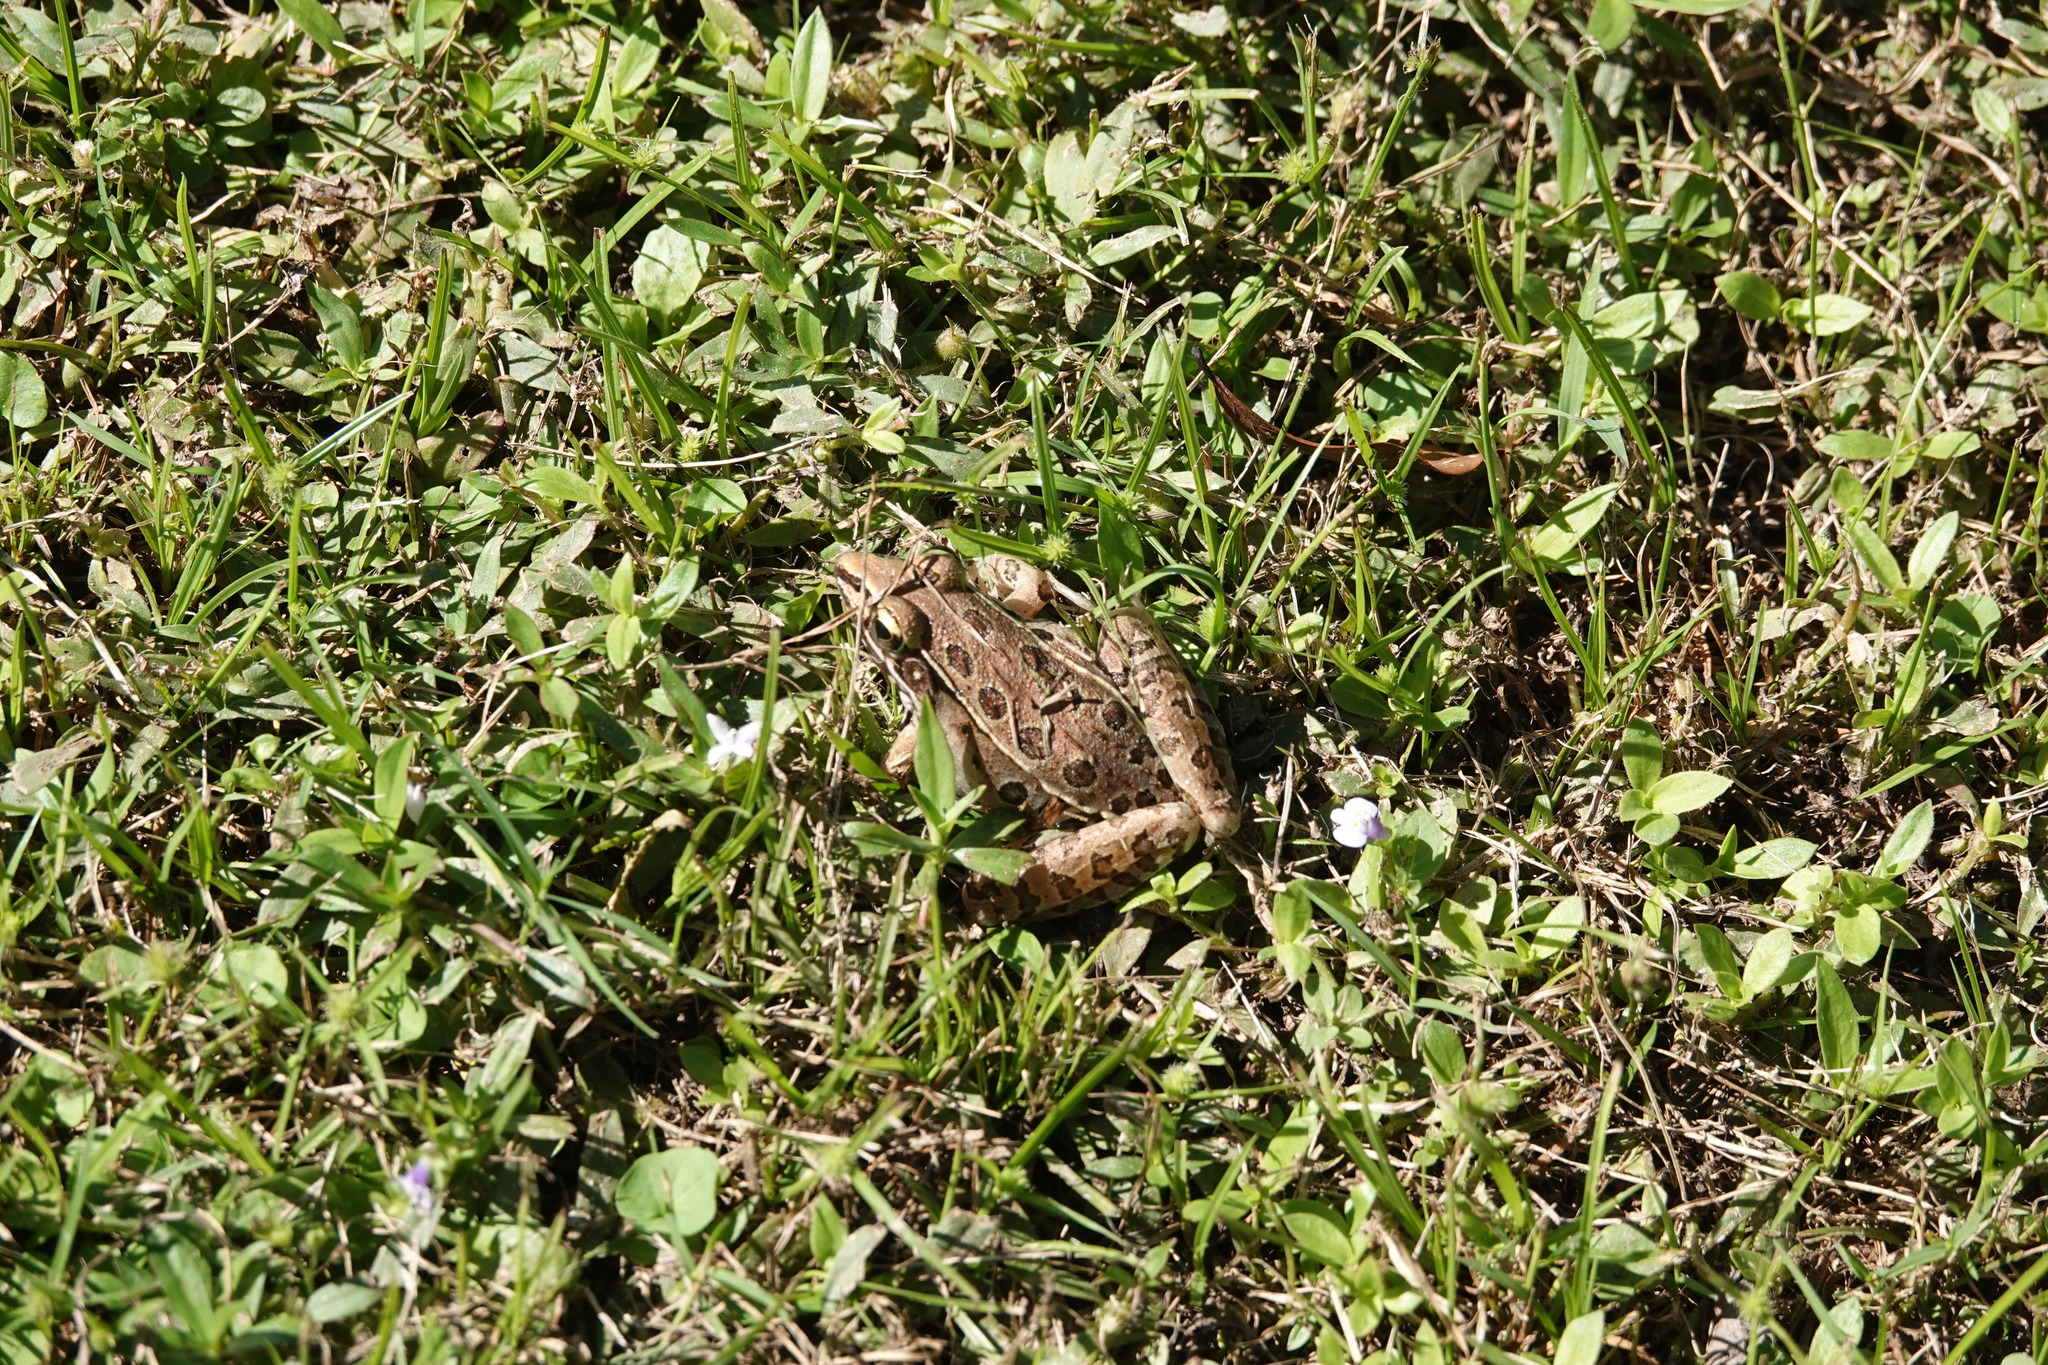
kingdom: Animalia
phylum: Chordata
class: Amphibia
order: Anura
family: Ranidae
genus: Lithobates
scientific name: Lithobates sphenocephalus
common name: Southern leopard frog
